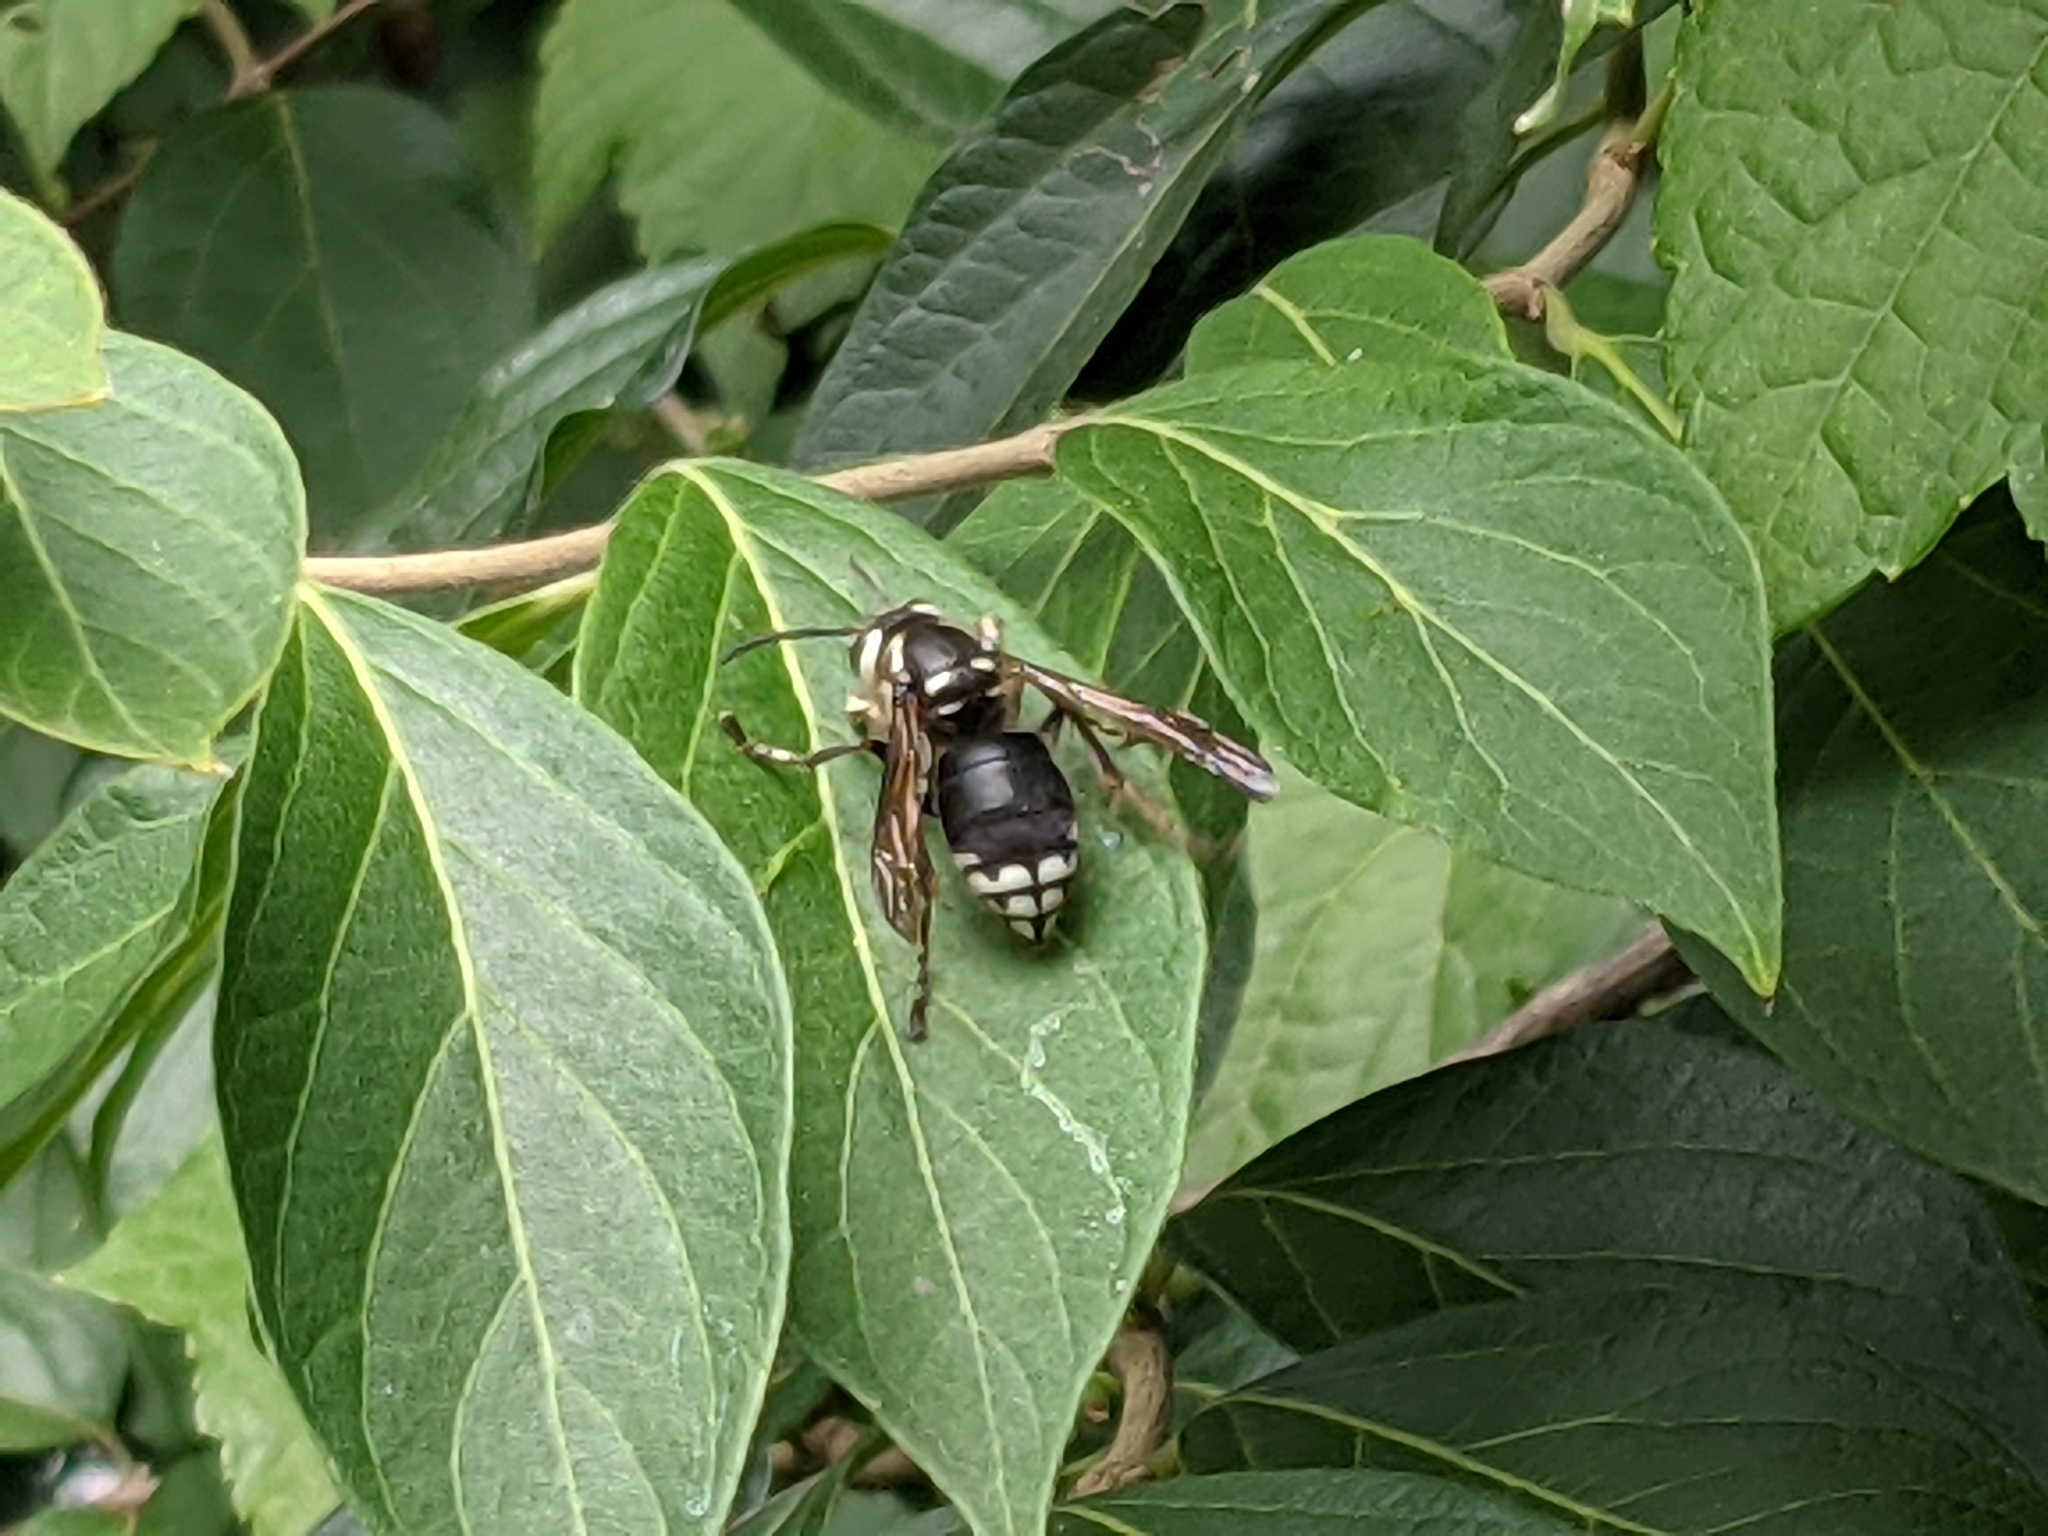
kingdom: Animalia
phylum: Arthropoda
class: Insecta
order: Hymenoptera
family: Vespidae
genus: Dolichovespula
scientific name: Dolichovespula maculata
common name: Bald-faced hornet
